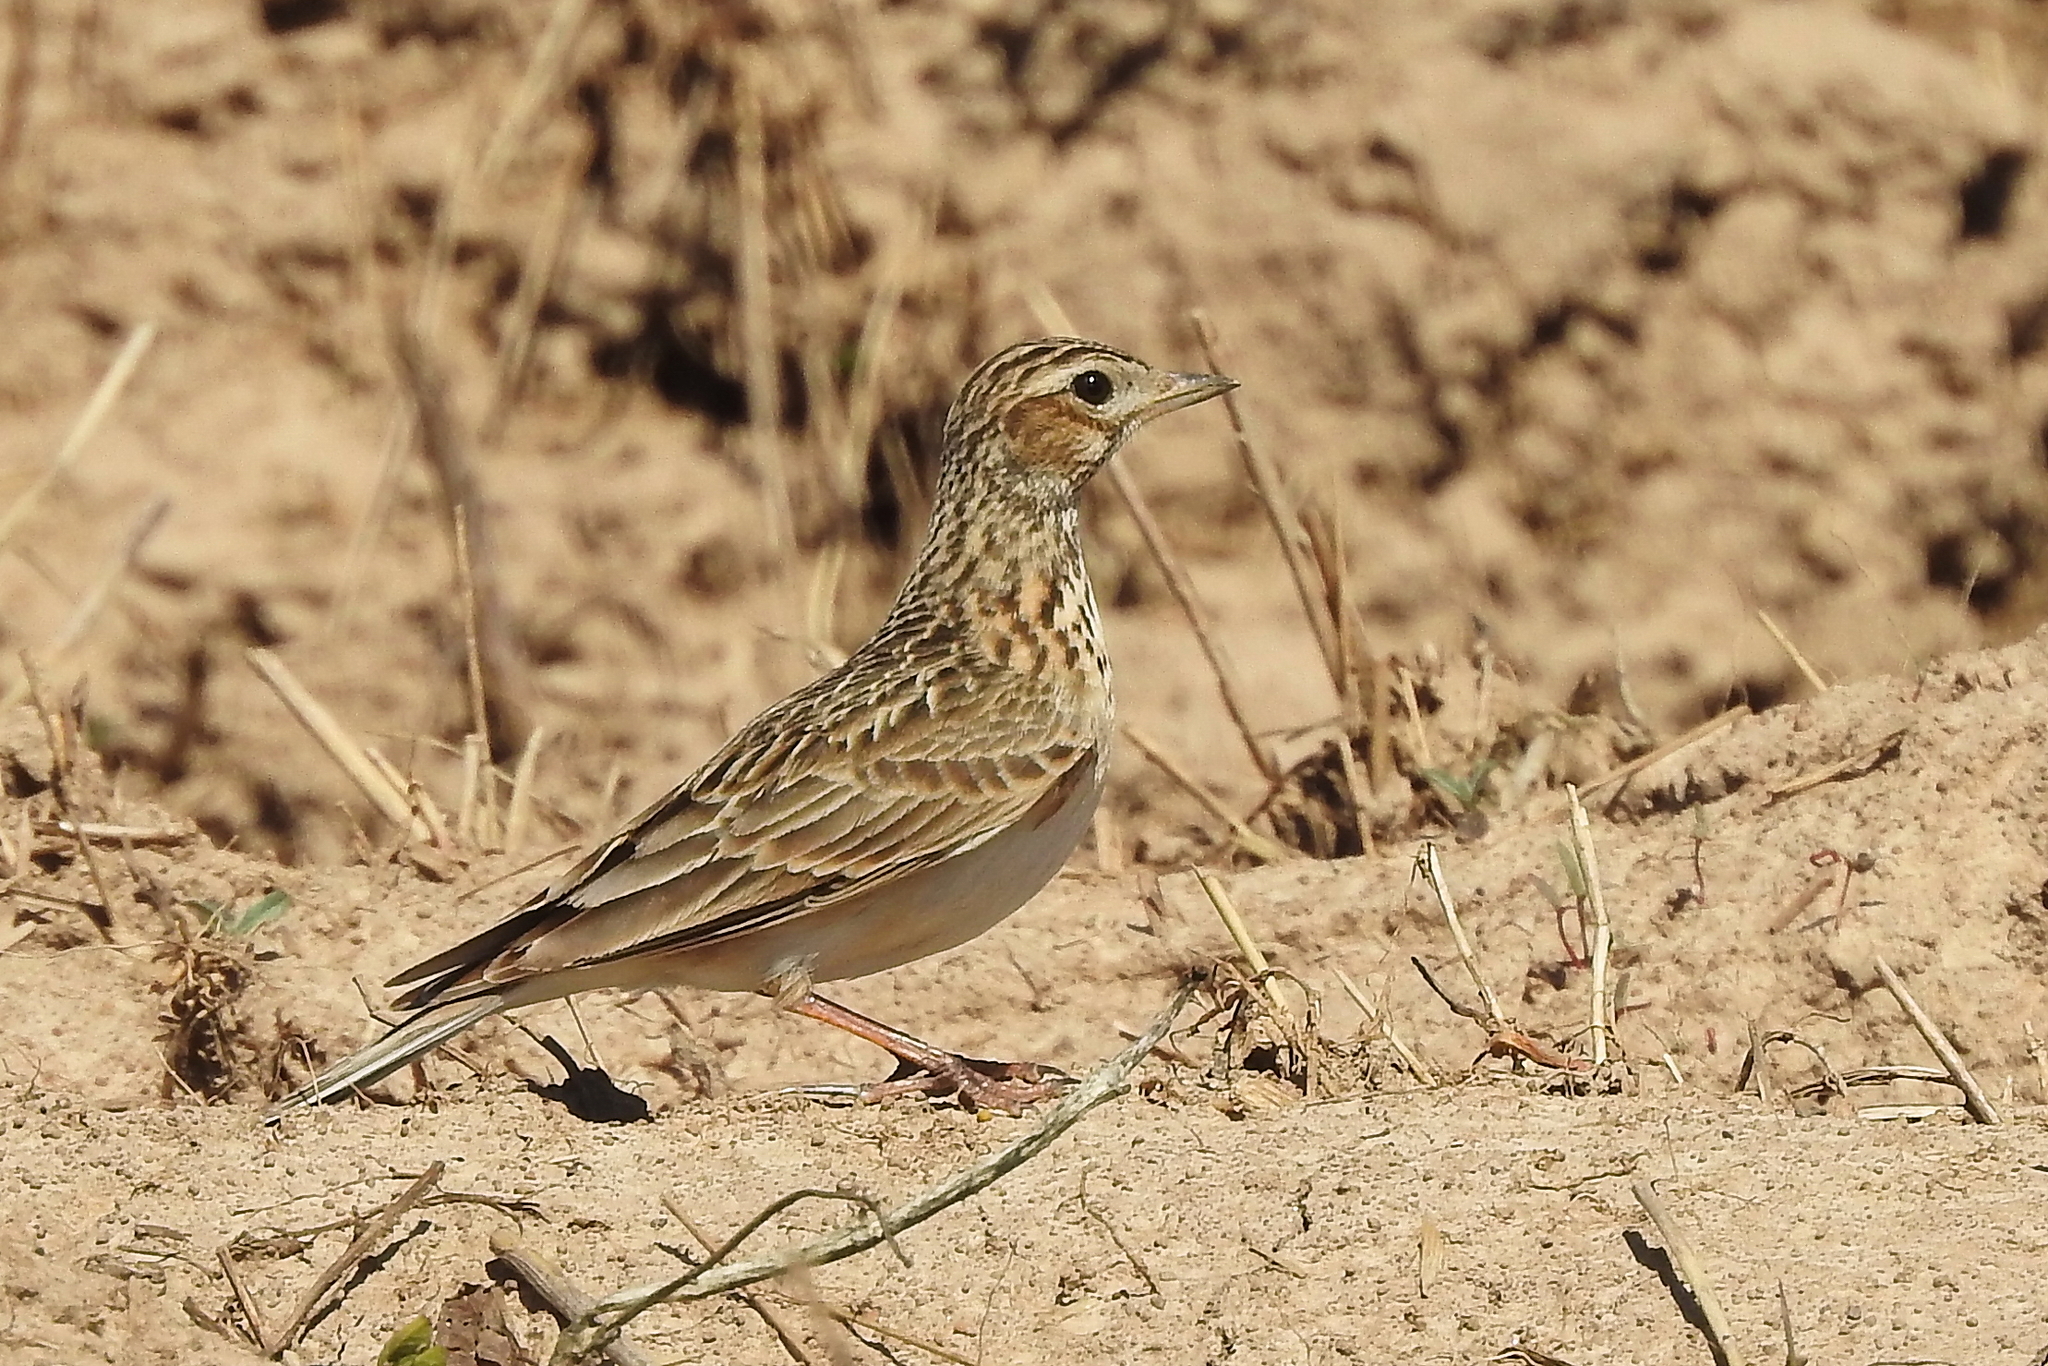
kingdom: Animalia
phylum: Chordata
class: Aves
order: Passeriformes
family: Alaudidae
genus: Alauda
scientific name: Alauda arvensis
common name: Eurasian skylark
